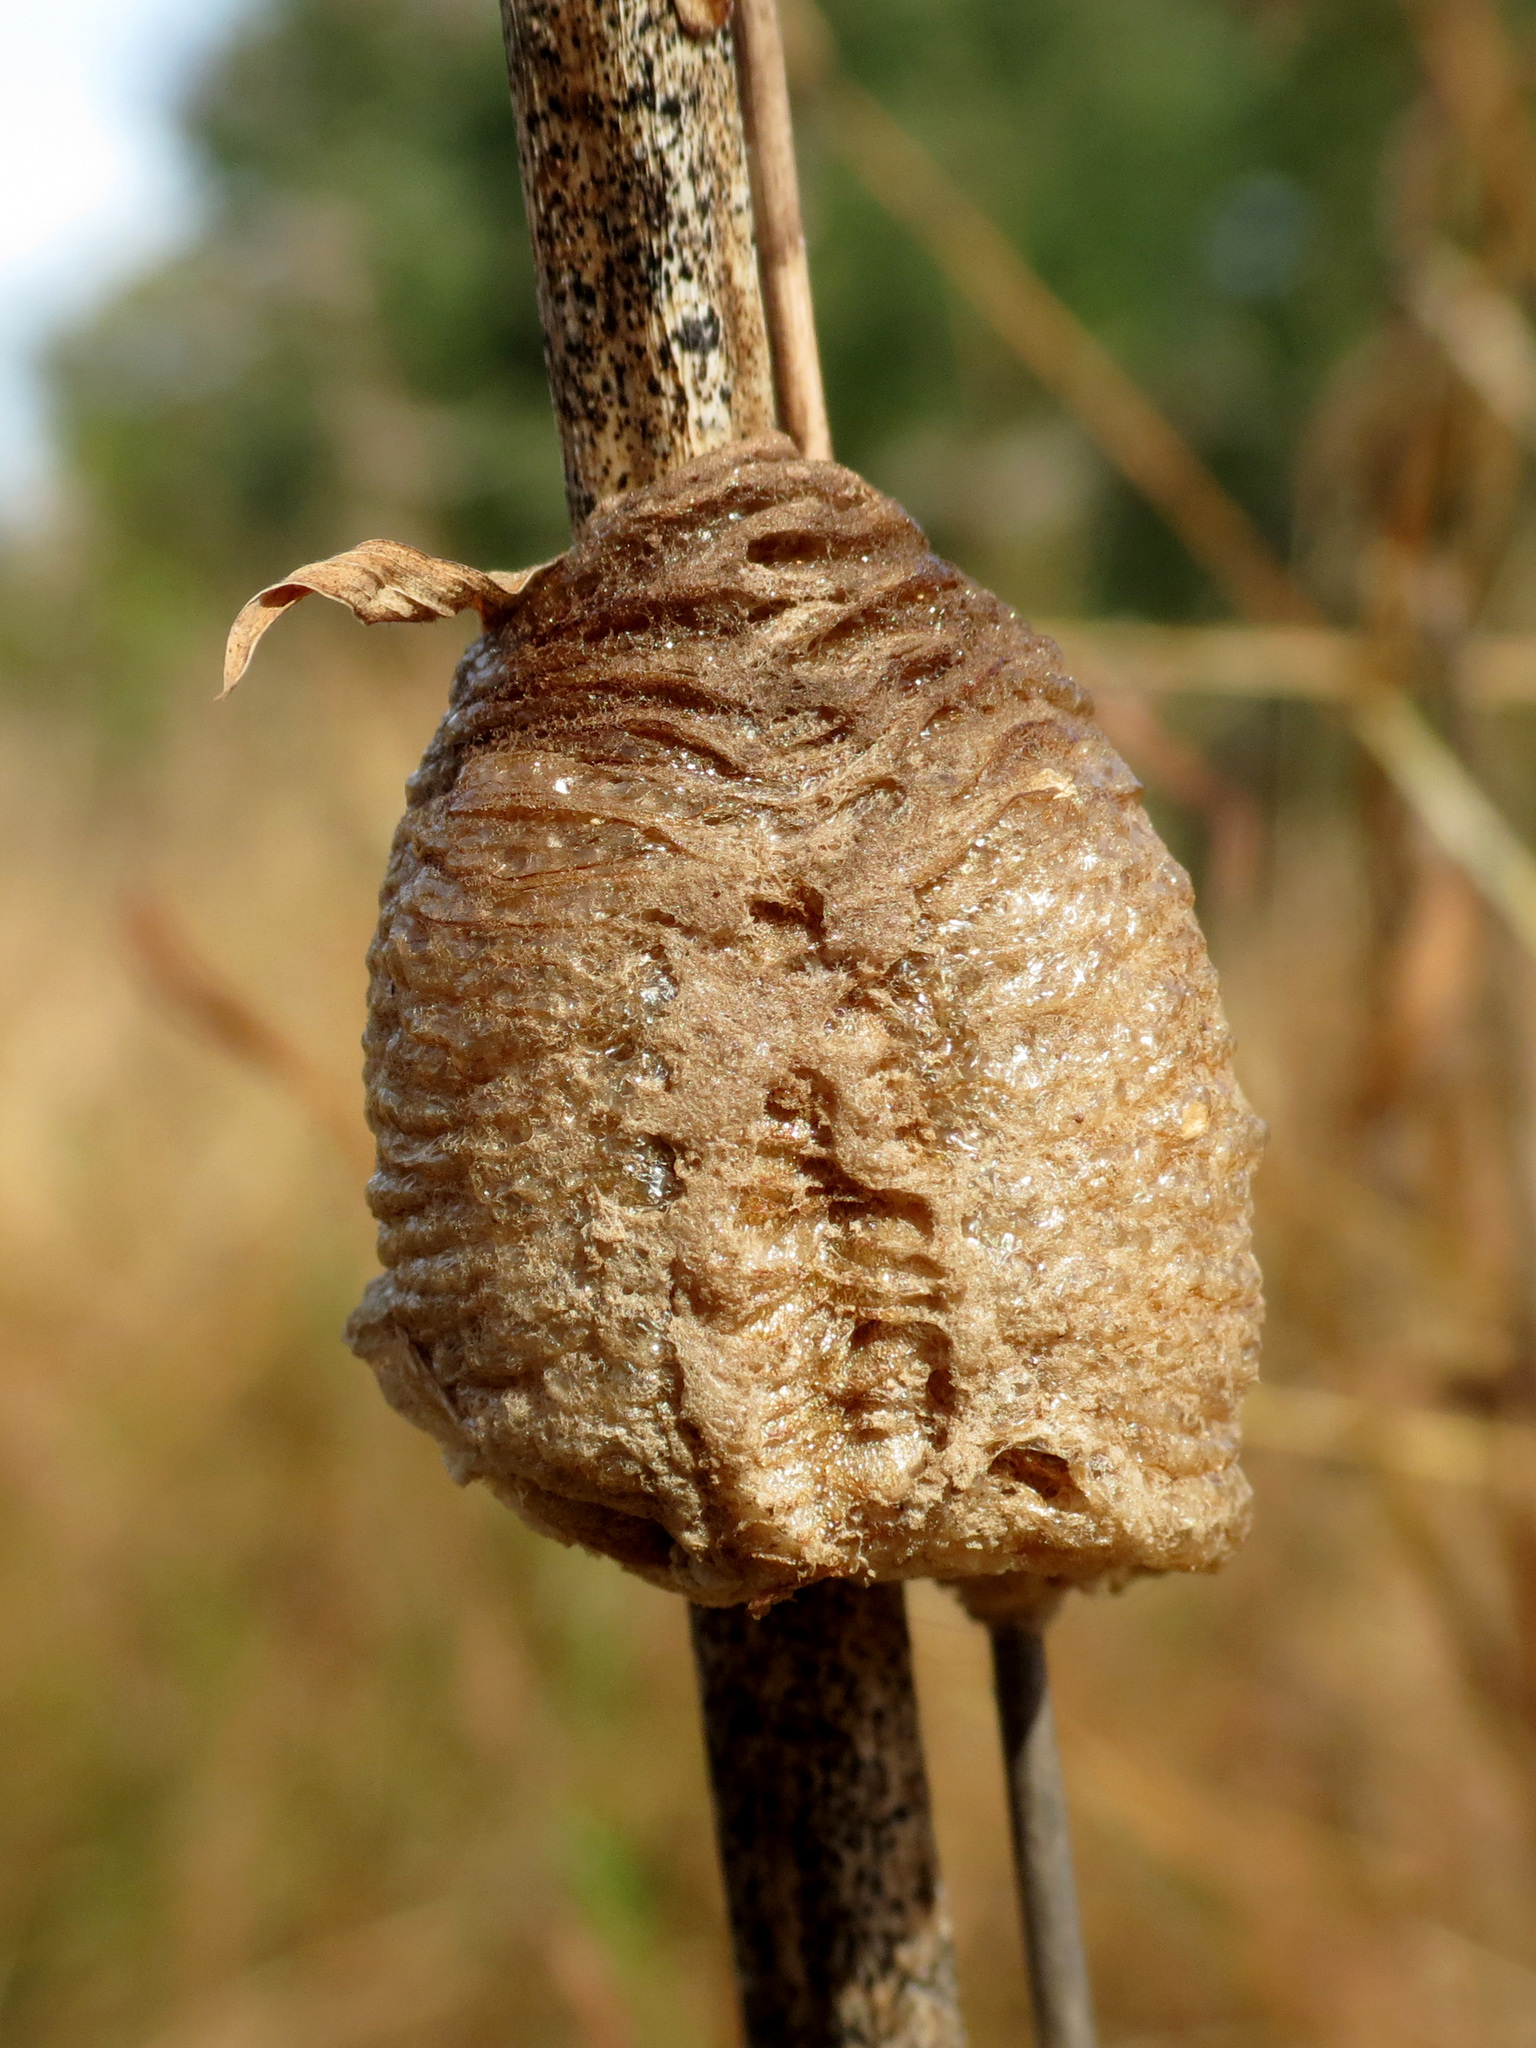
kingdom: Animalia
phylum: Arthropoda
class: Insecta
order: Mantodea
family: Mantidae
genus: Tenodera
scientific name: Tenodera sinensis
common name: Chinese mantis
